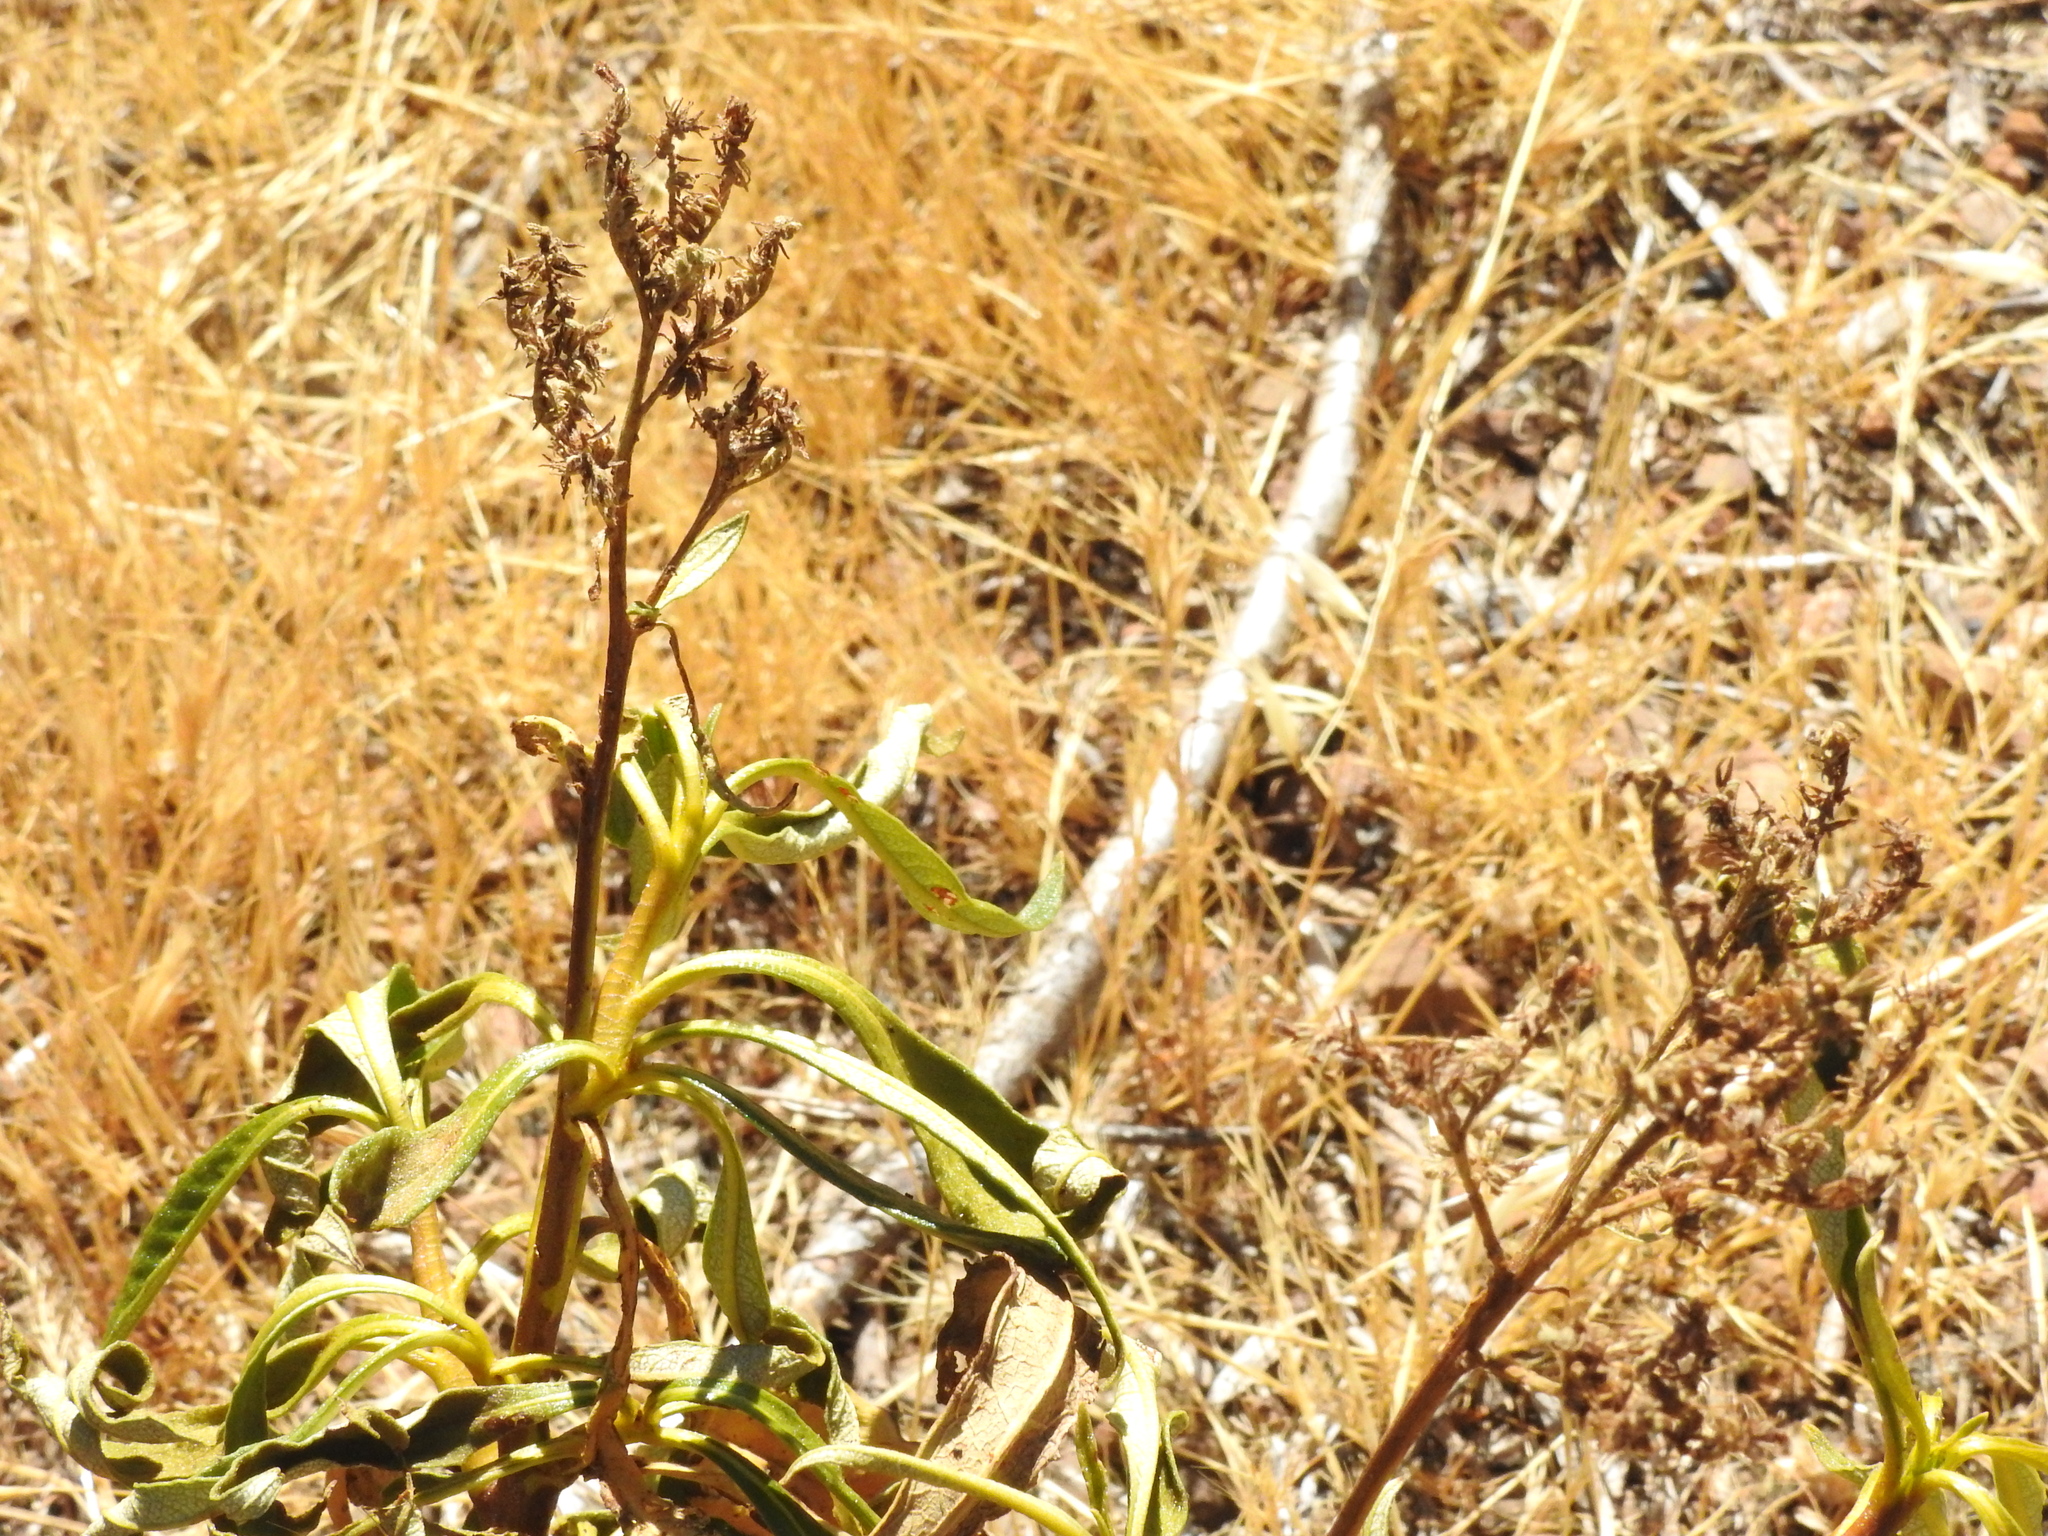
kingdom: Plantae
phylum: Tracheophyta
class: Magnoliopsida
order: Boraginales
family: Namaceae
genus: Eriodictyon
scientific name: Eriodictyon californicum
